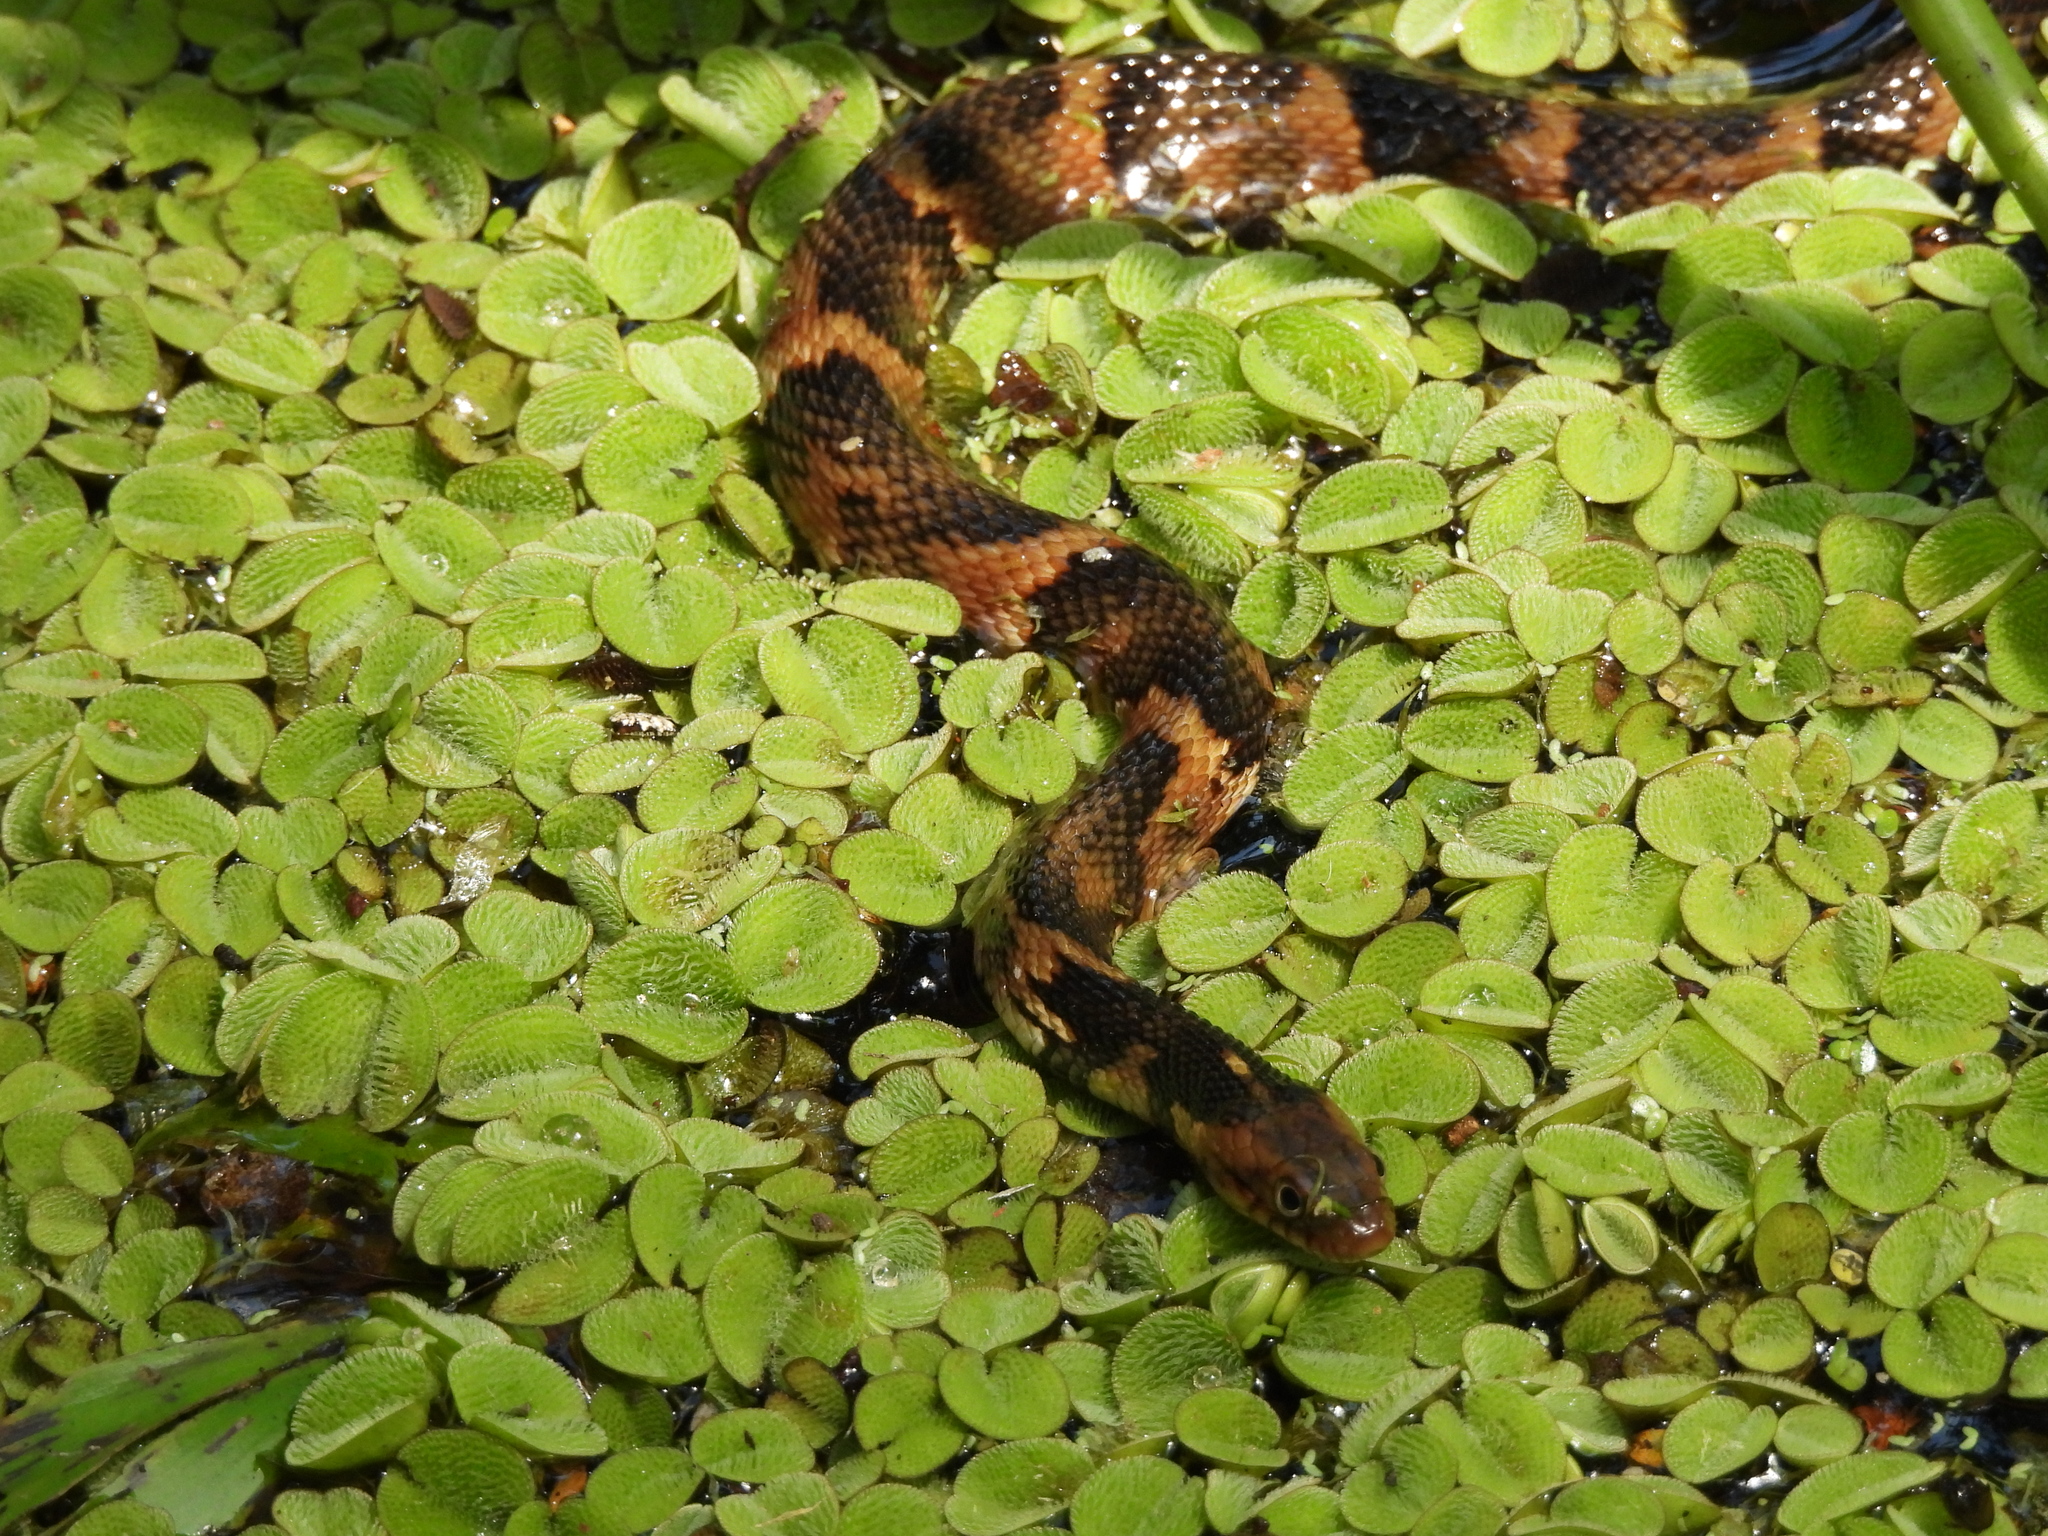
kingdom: Animalia
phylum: Chordata
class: Squamata
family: Colubridae
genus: Nerodia
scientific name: Nerodia fasciata
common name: Southern water snake
